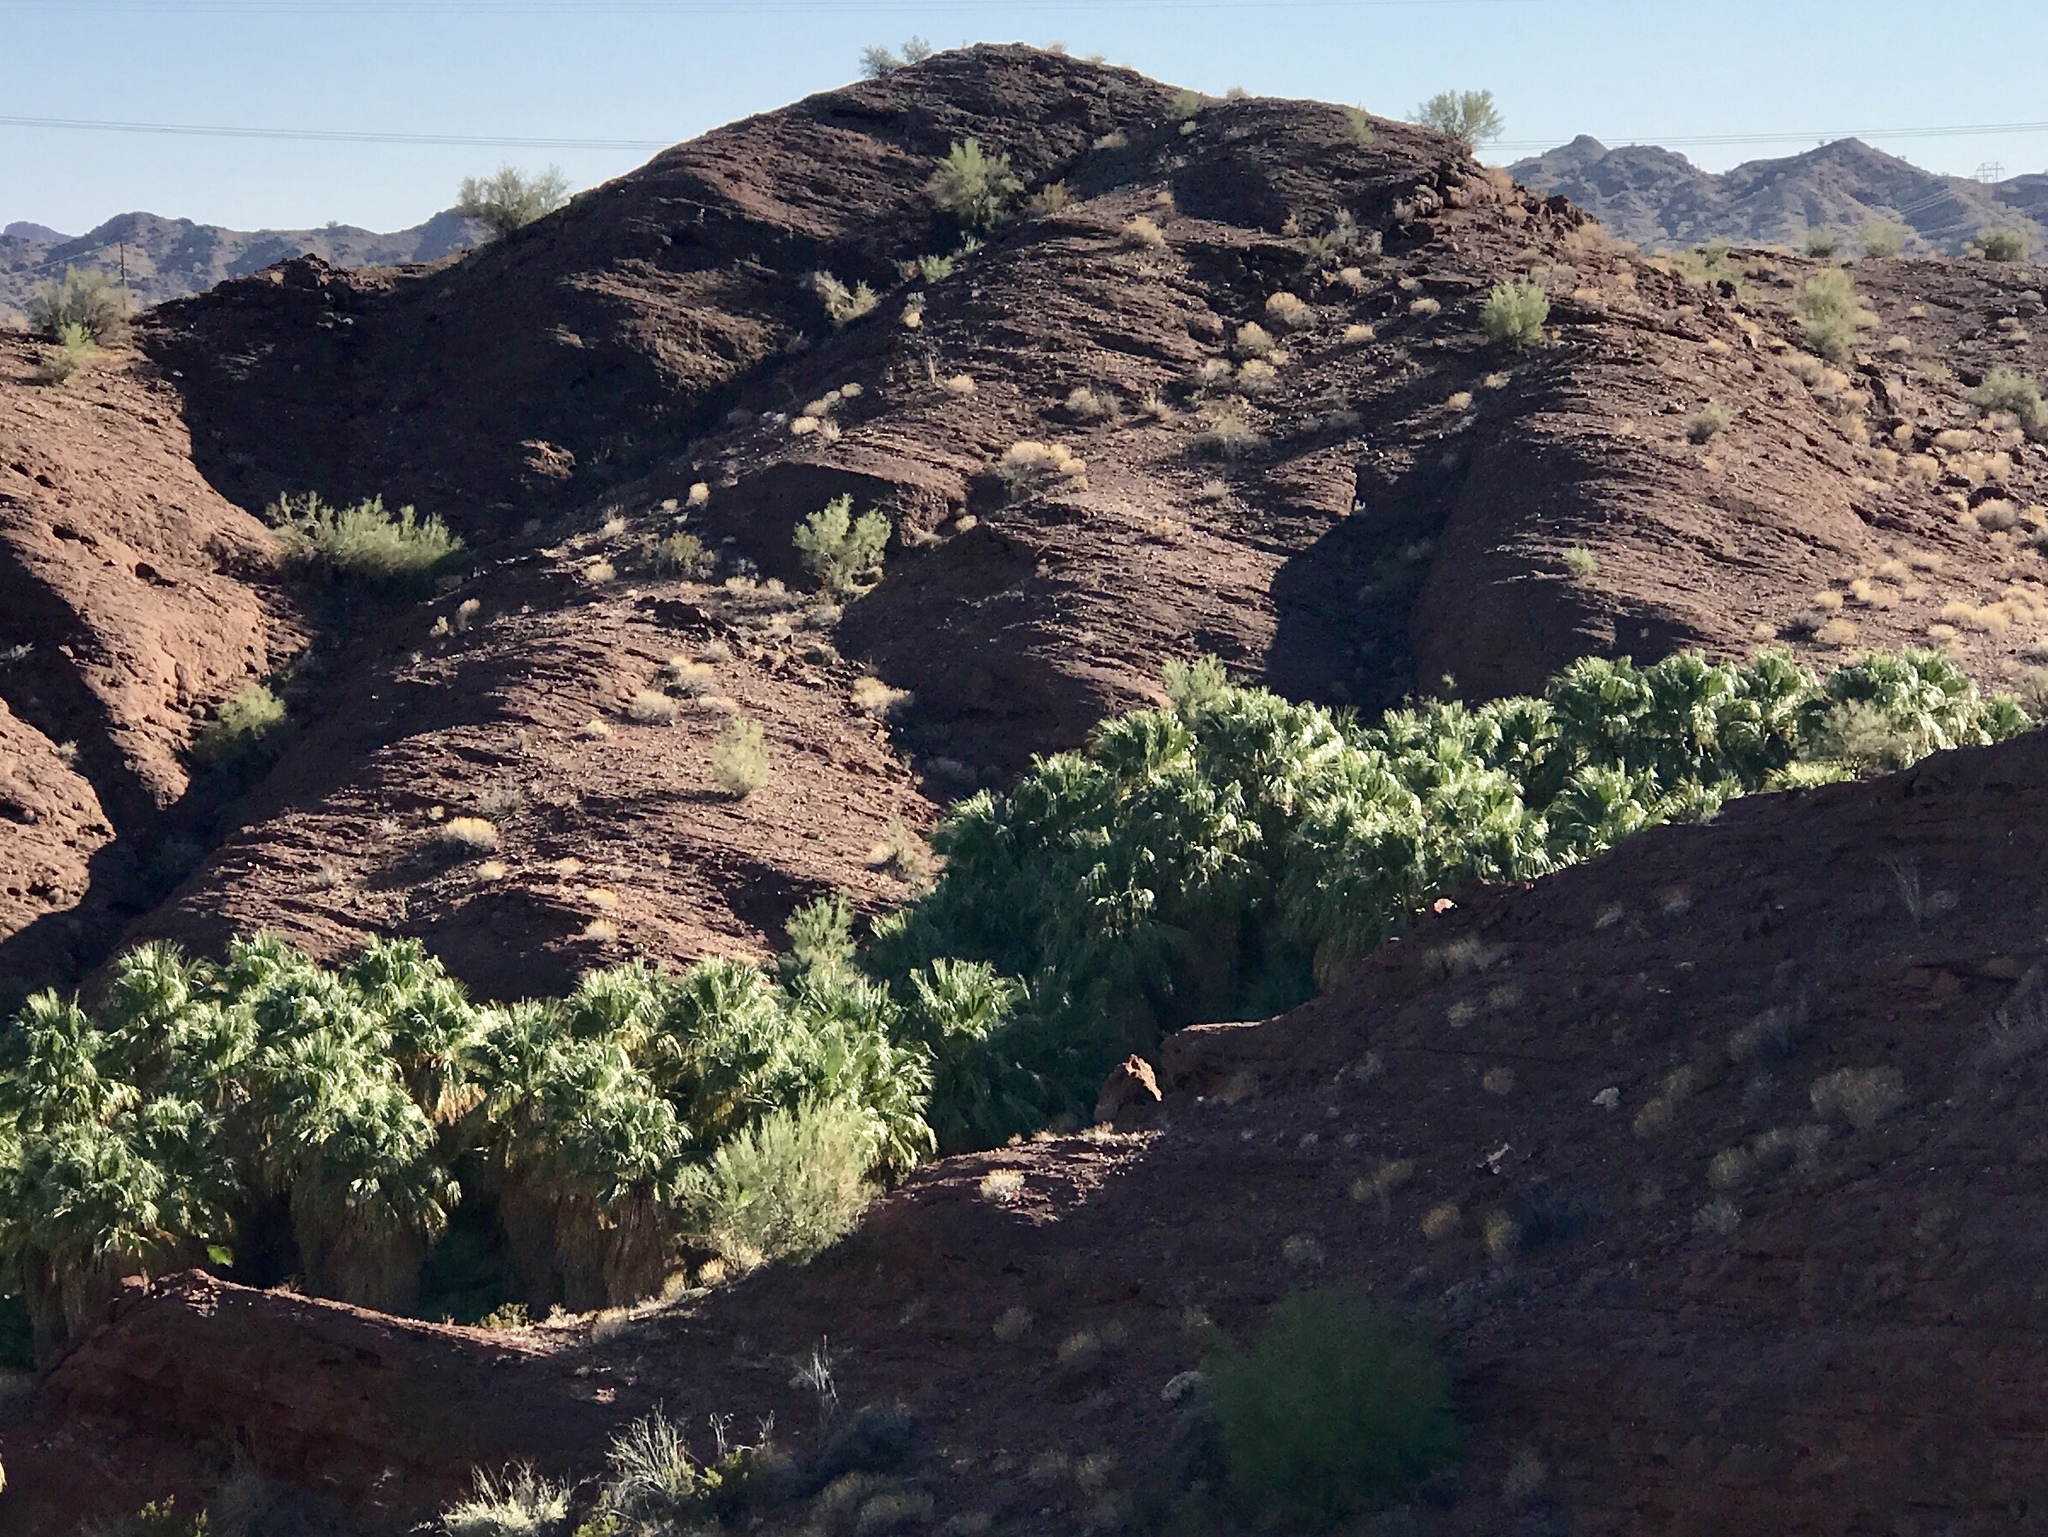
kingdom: Plantae
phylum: Tracheophyta
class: Liliopsida
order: Arecales
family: Arecaceae
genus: Washingtonia
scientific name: Washingtonia filifera
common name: California fan palm
